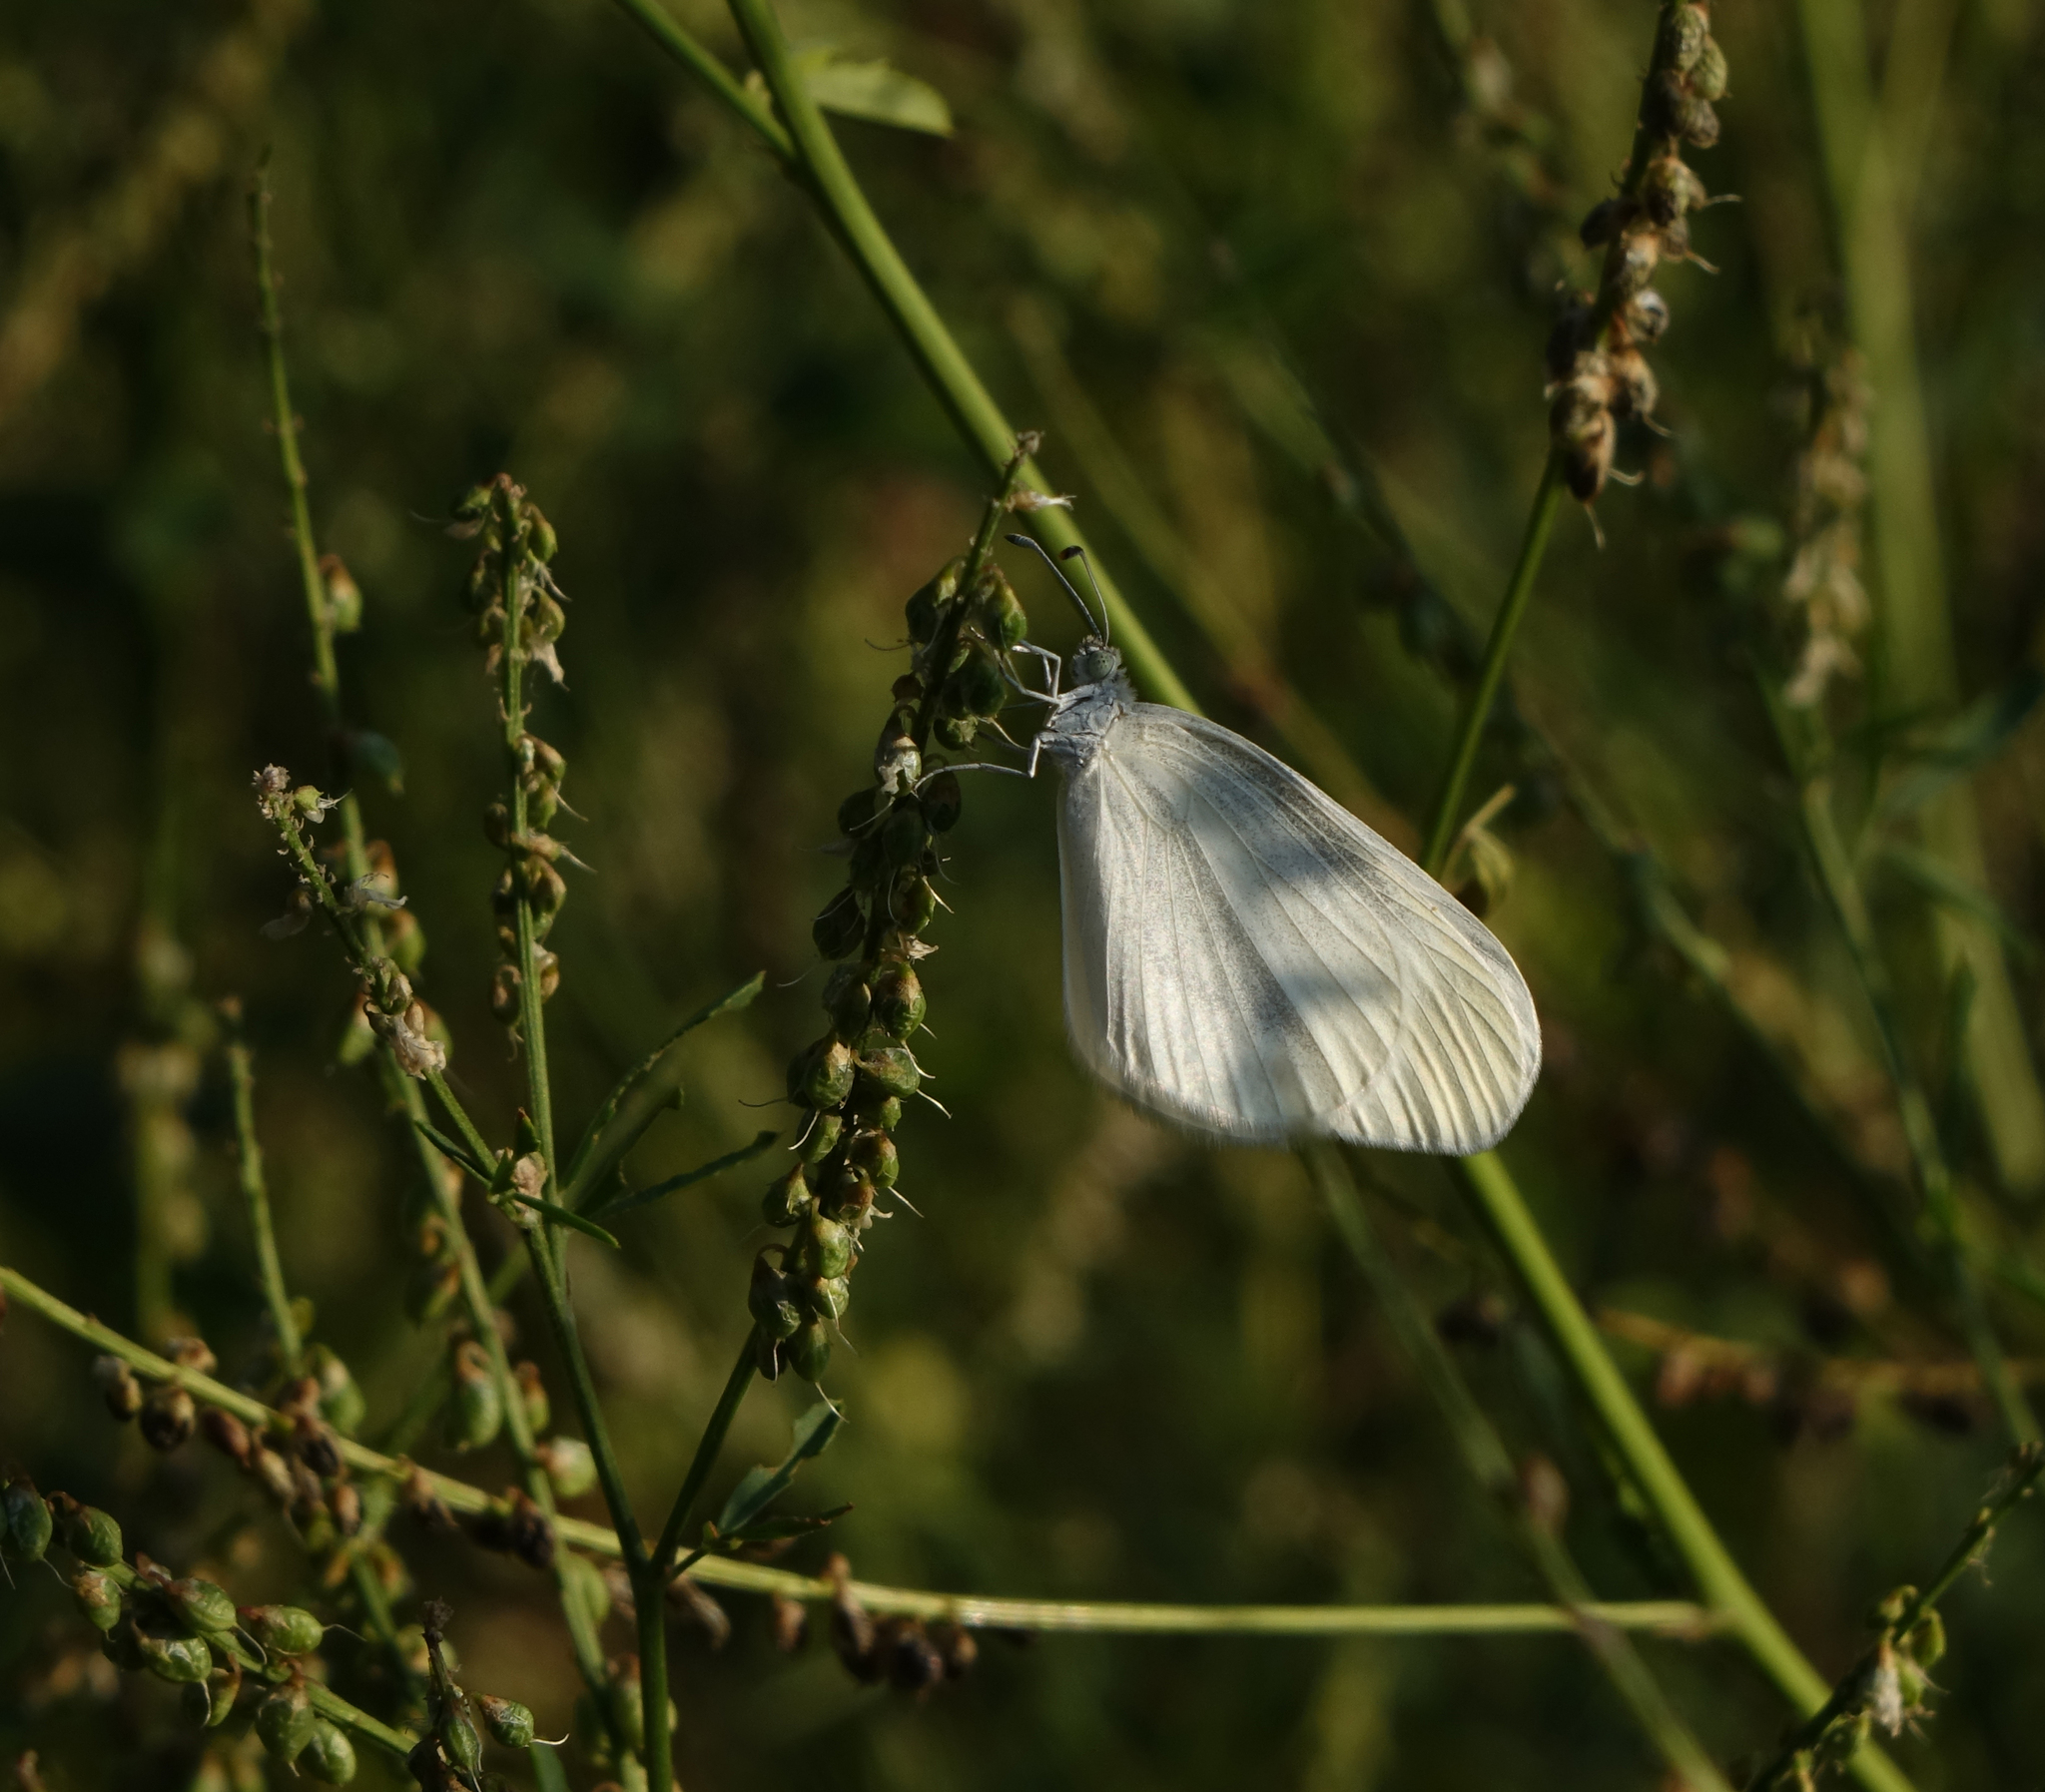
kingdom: Animalia
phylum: Arthropoda
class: Insecta
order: Lepidoptera
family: Pieridae
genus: Leptidea
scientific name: Leptidea morsei
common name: Fenton's wood white
